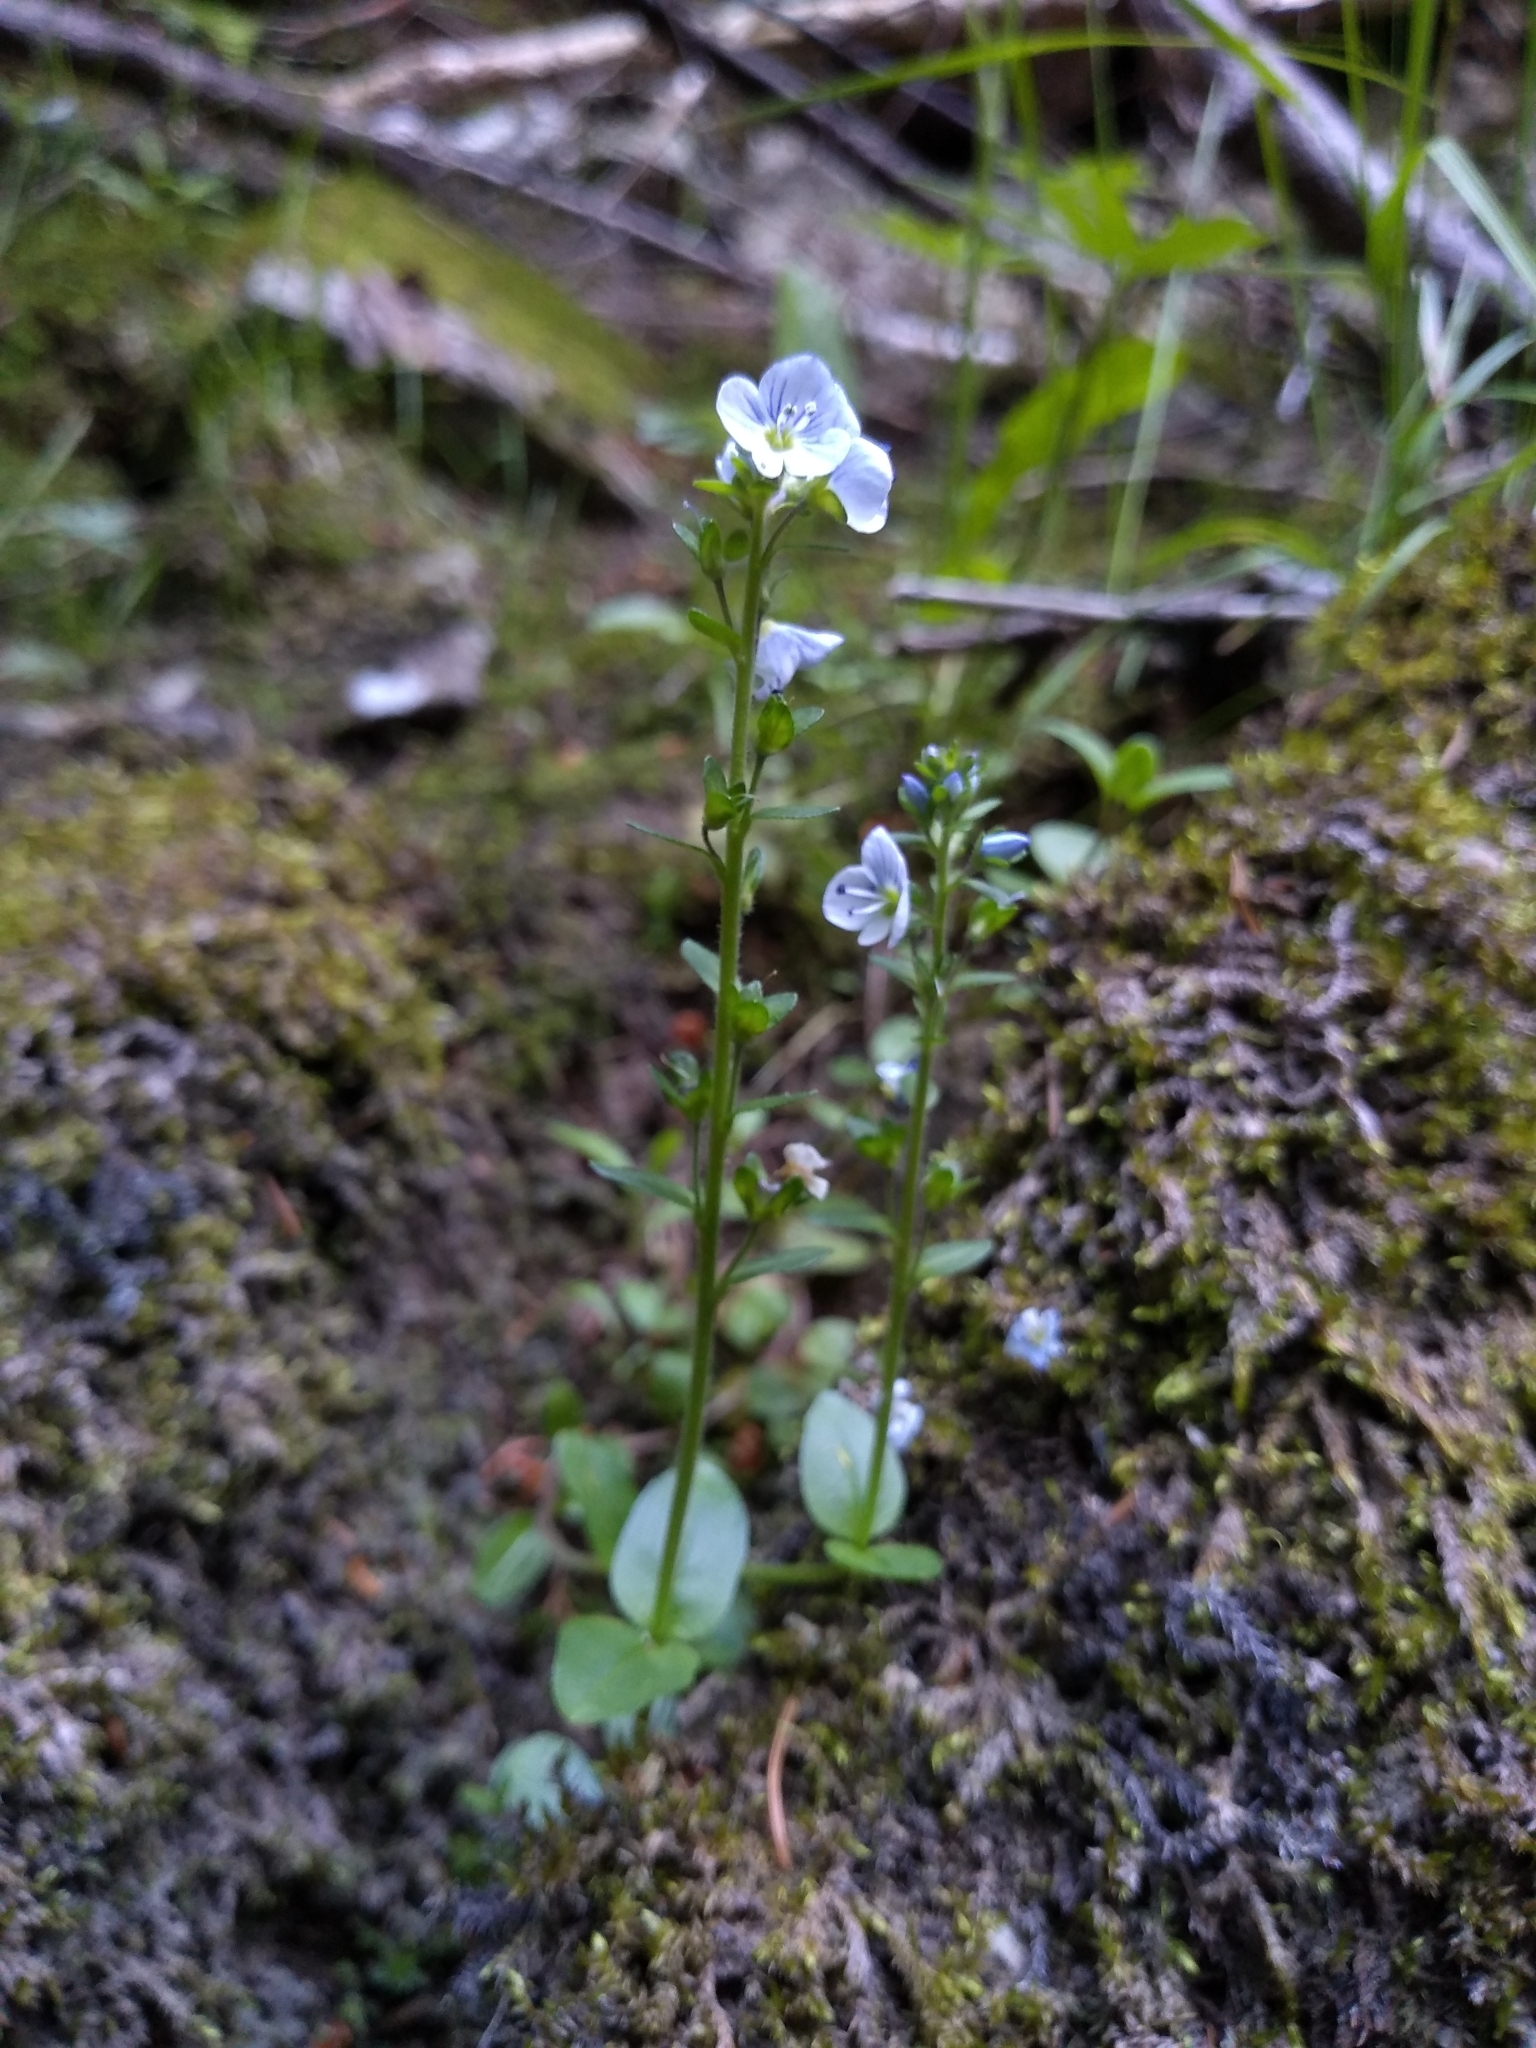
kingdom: Plantae
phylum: Tracheophyta
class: Magnoliopsida
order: Lamiales
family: Plantaginaceae
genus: Veronica
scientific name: Veronica serpyllifolia
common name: Thyme-leaved speedwell
